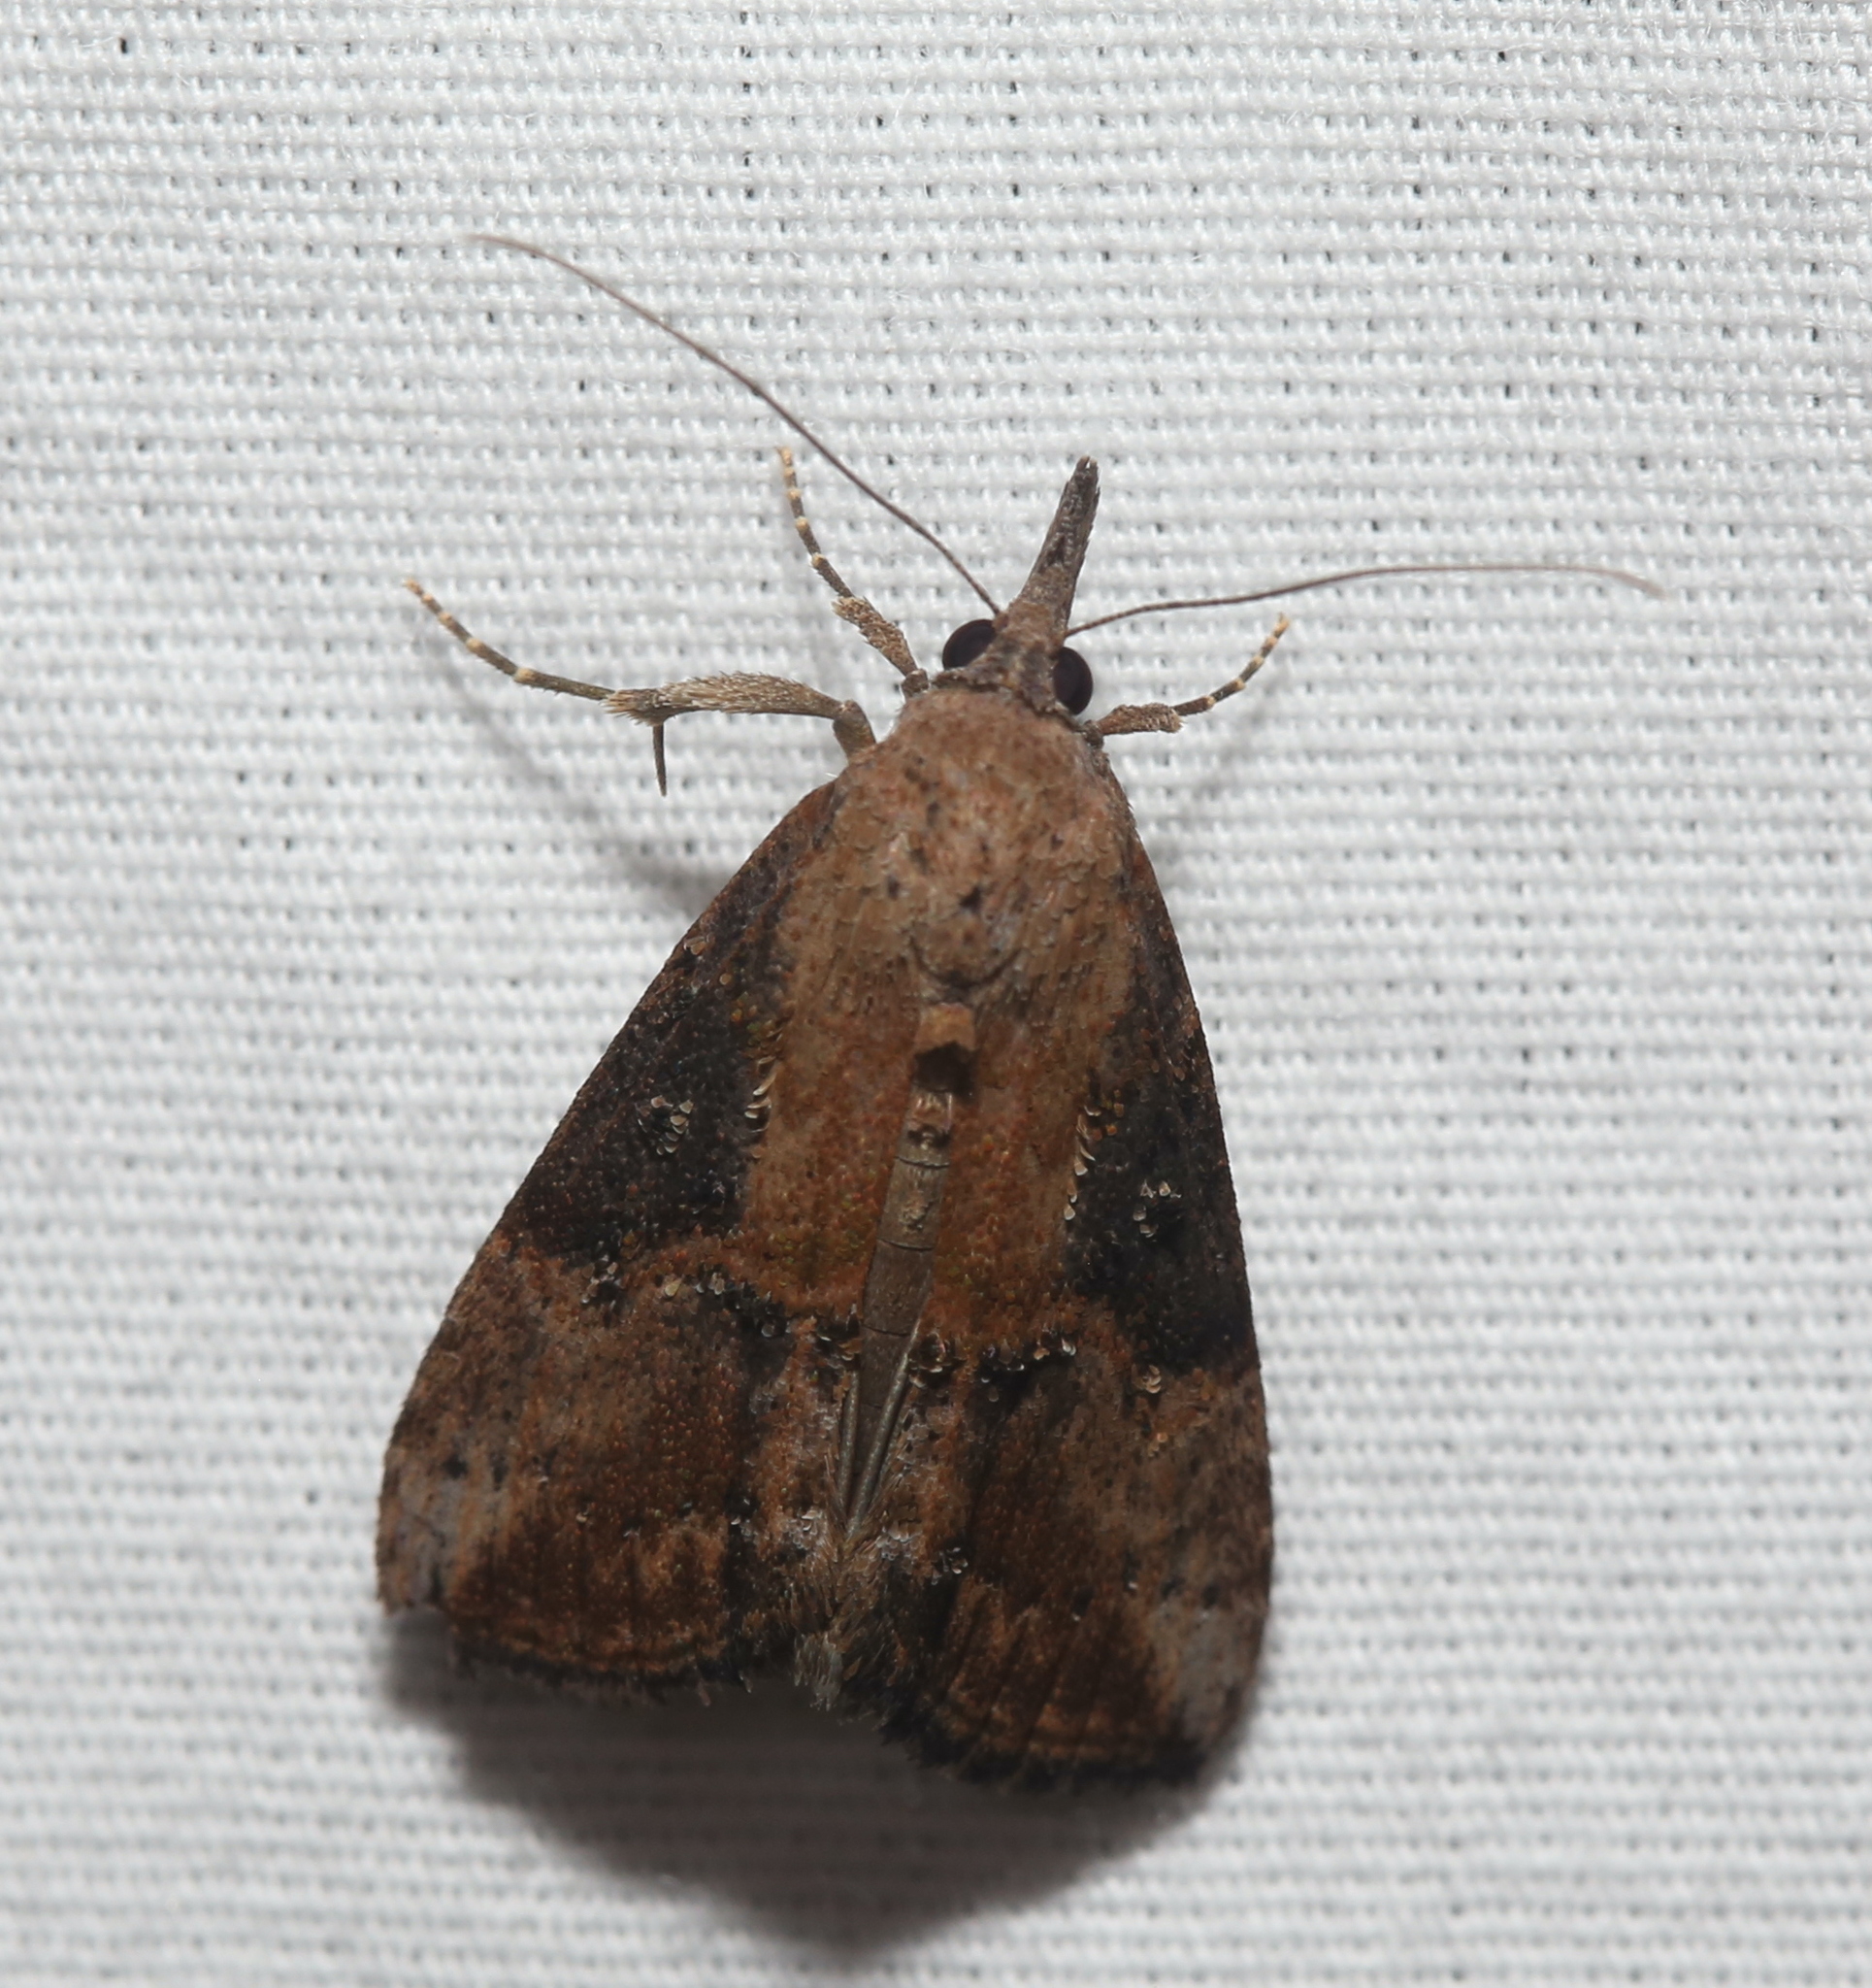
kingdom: Animalia
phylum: Arthropoda
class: Insecta
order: Lepidoptera
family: Erebidae
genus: Hypena
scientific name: Hypena scabra
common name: Green cloverworm
